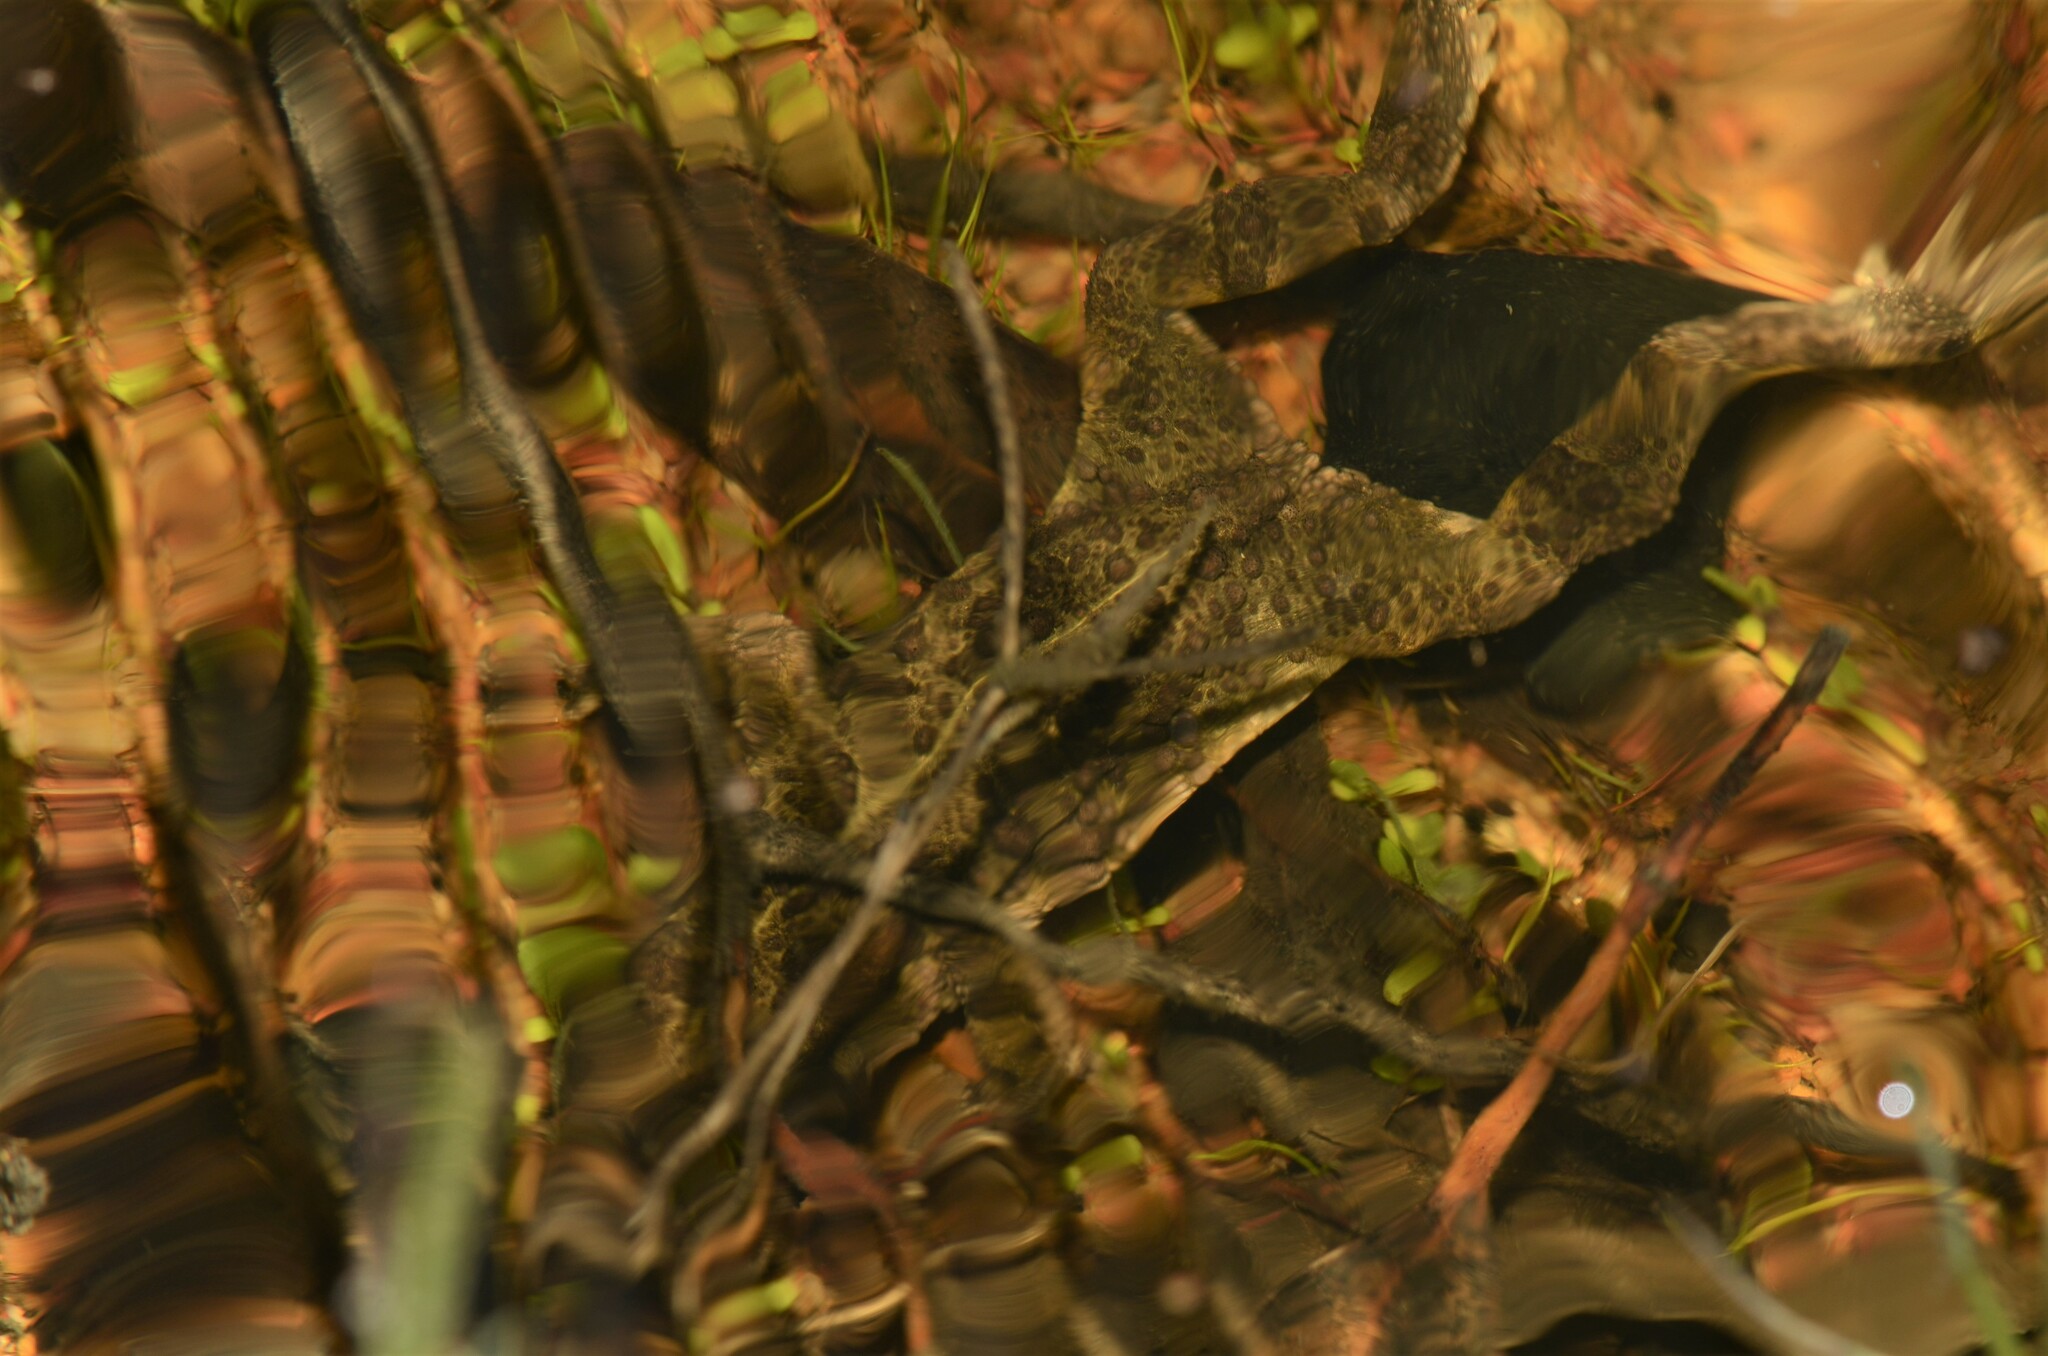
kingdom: Animalia
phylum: Chordata
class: Amphibia
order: Anura
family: Bufonidae
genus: Vandijkophrynus
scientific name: Vandijkophrynus angusticeps
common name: Sand toad
